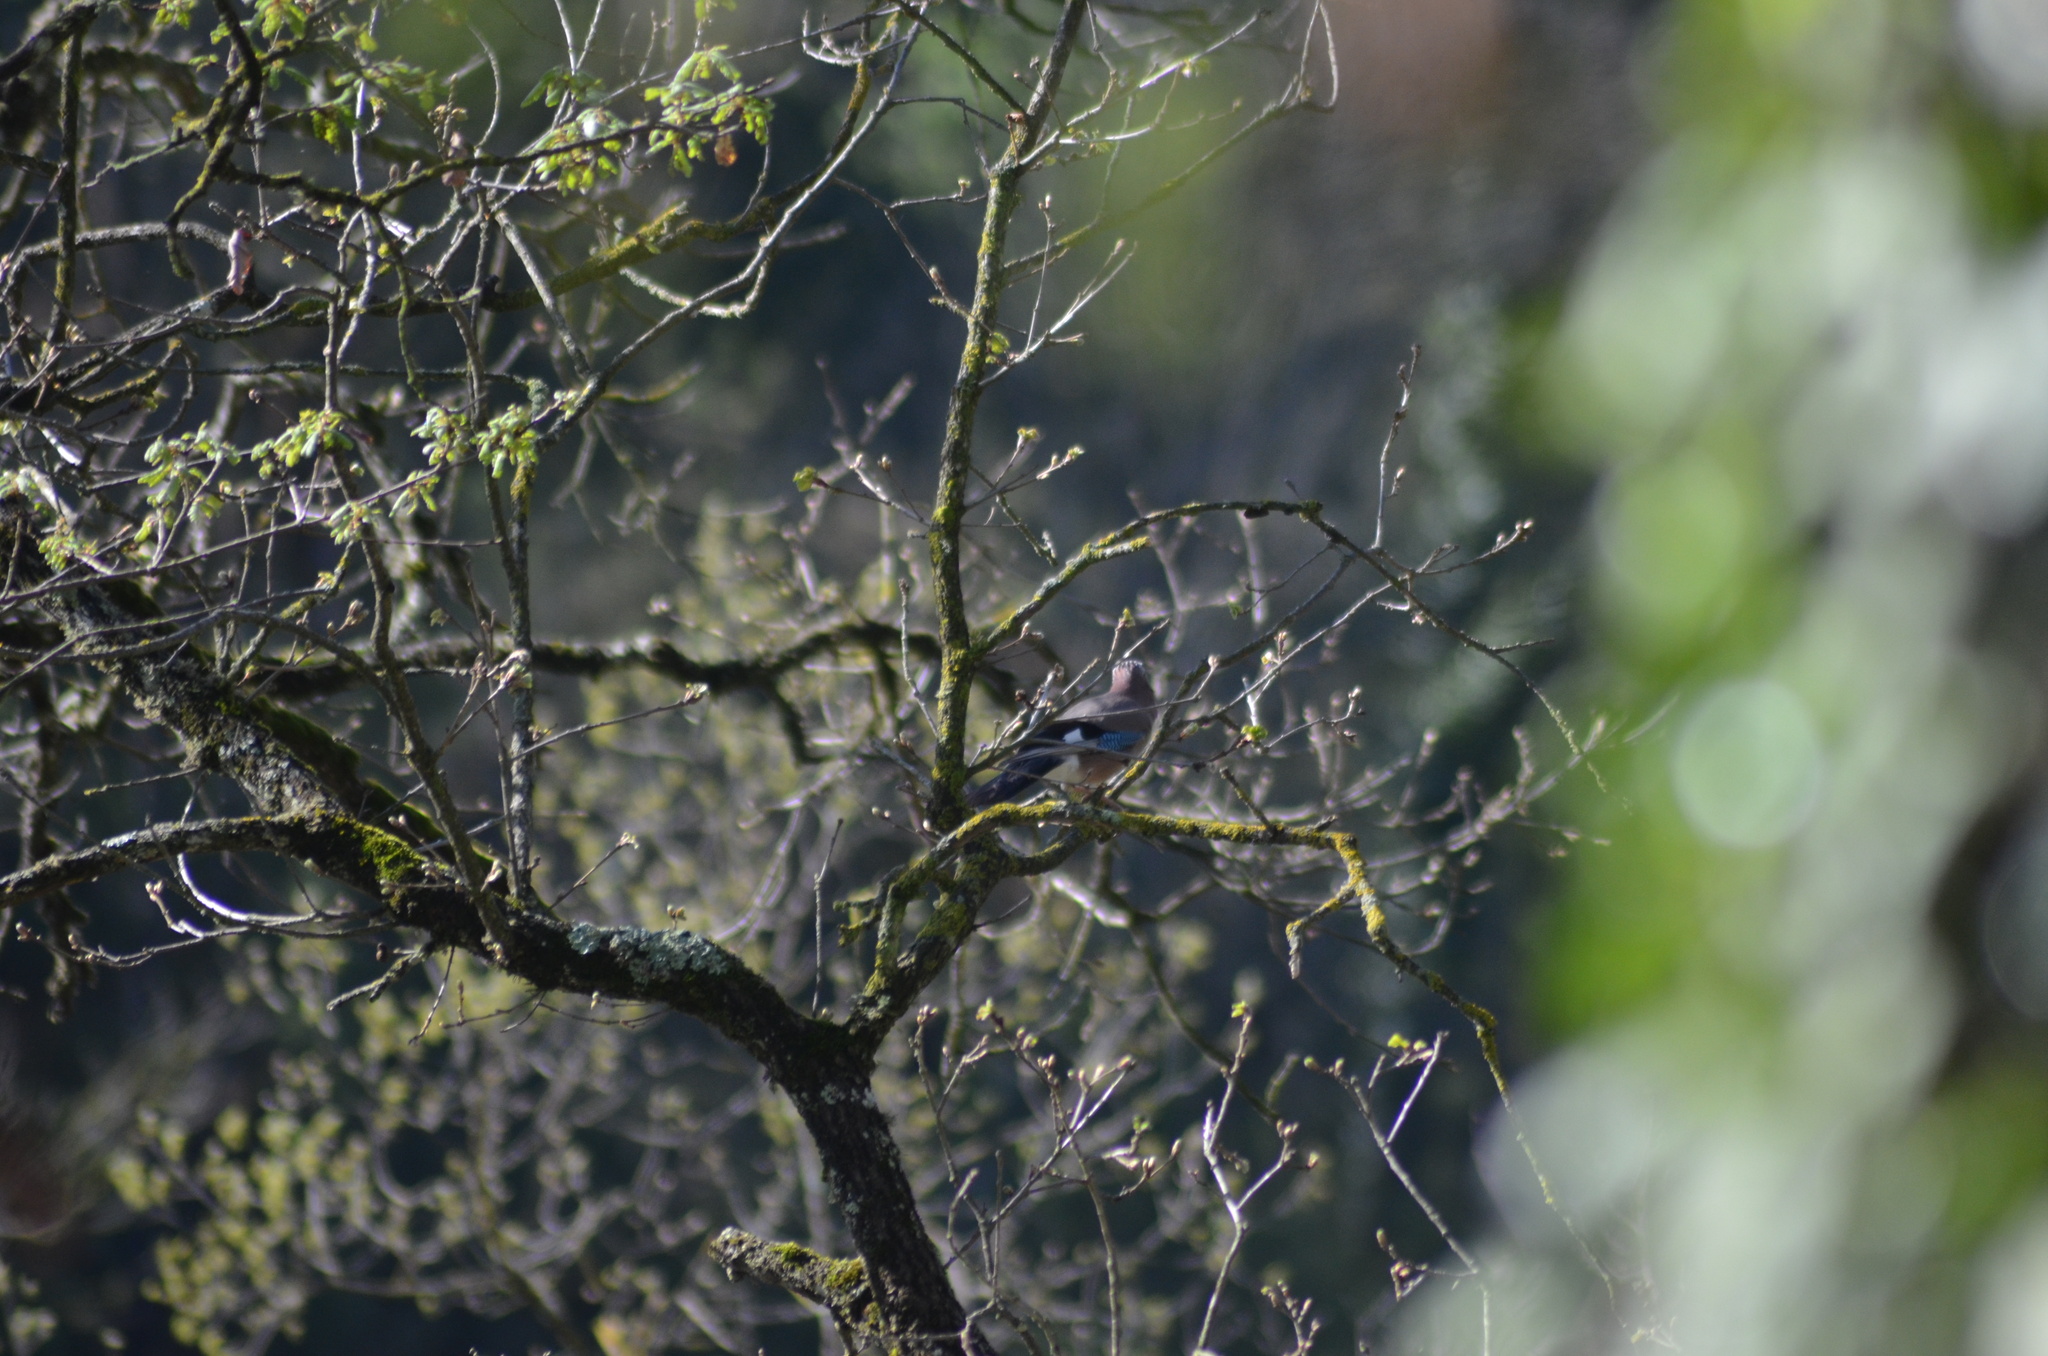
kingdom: Animalia
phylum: Chordata
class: Aves
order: Passeriformes
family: Corvidae
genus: Garrulus
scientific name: Garrulus glandarius
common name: Eurasian jay
